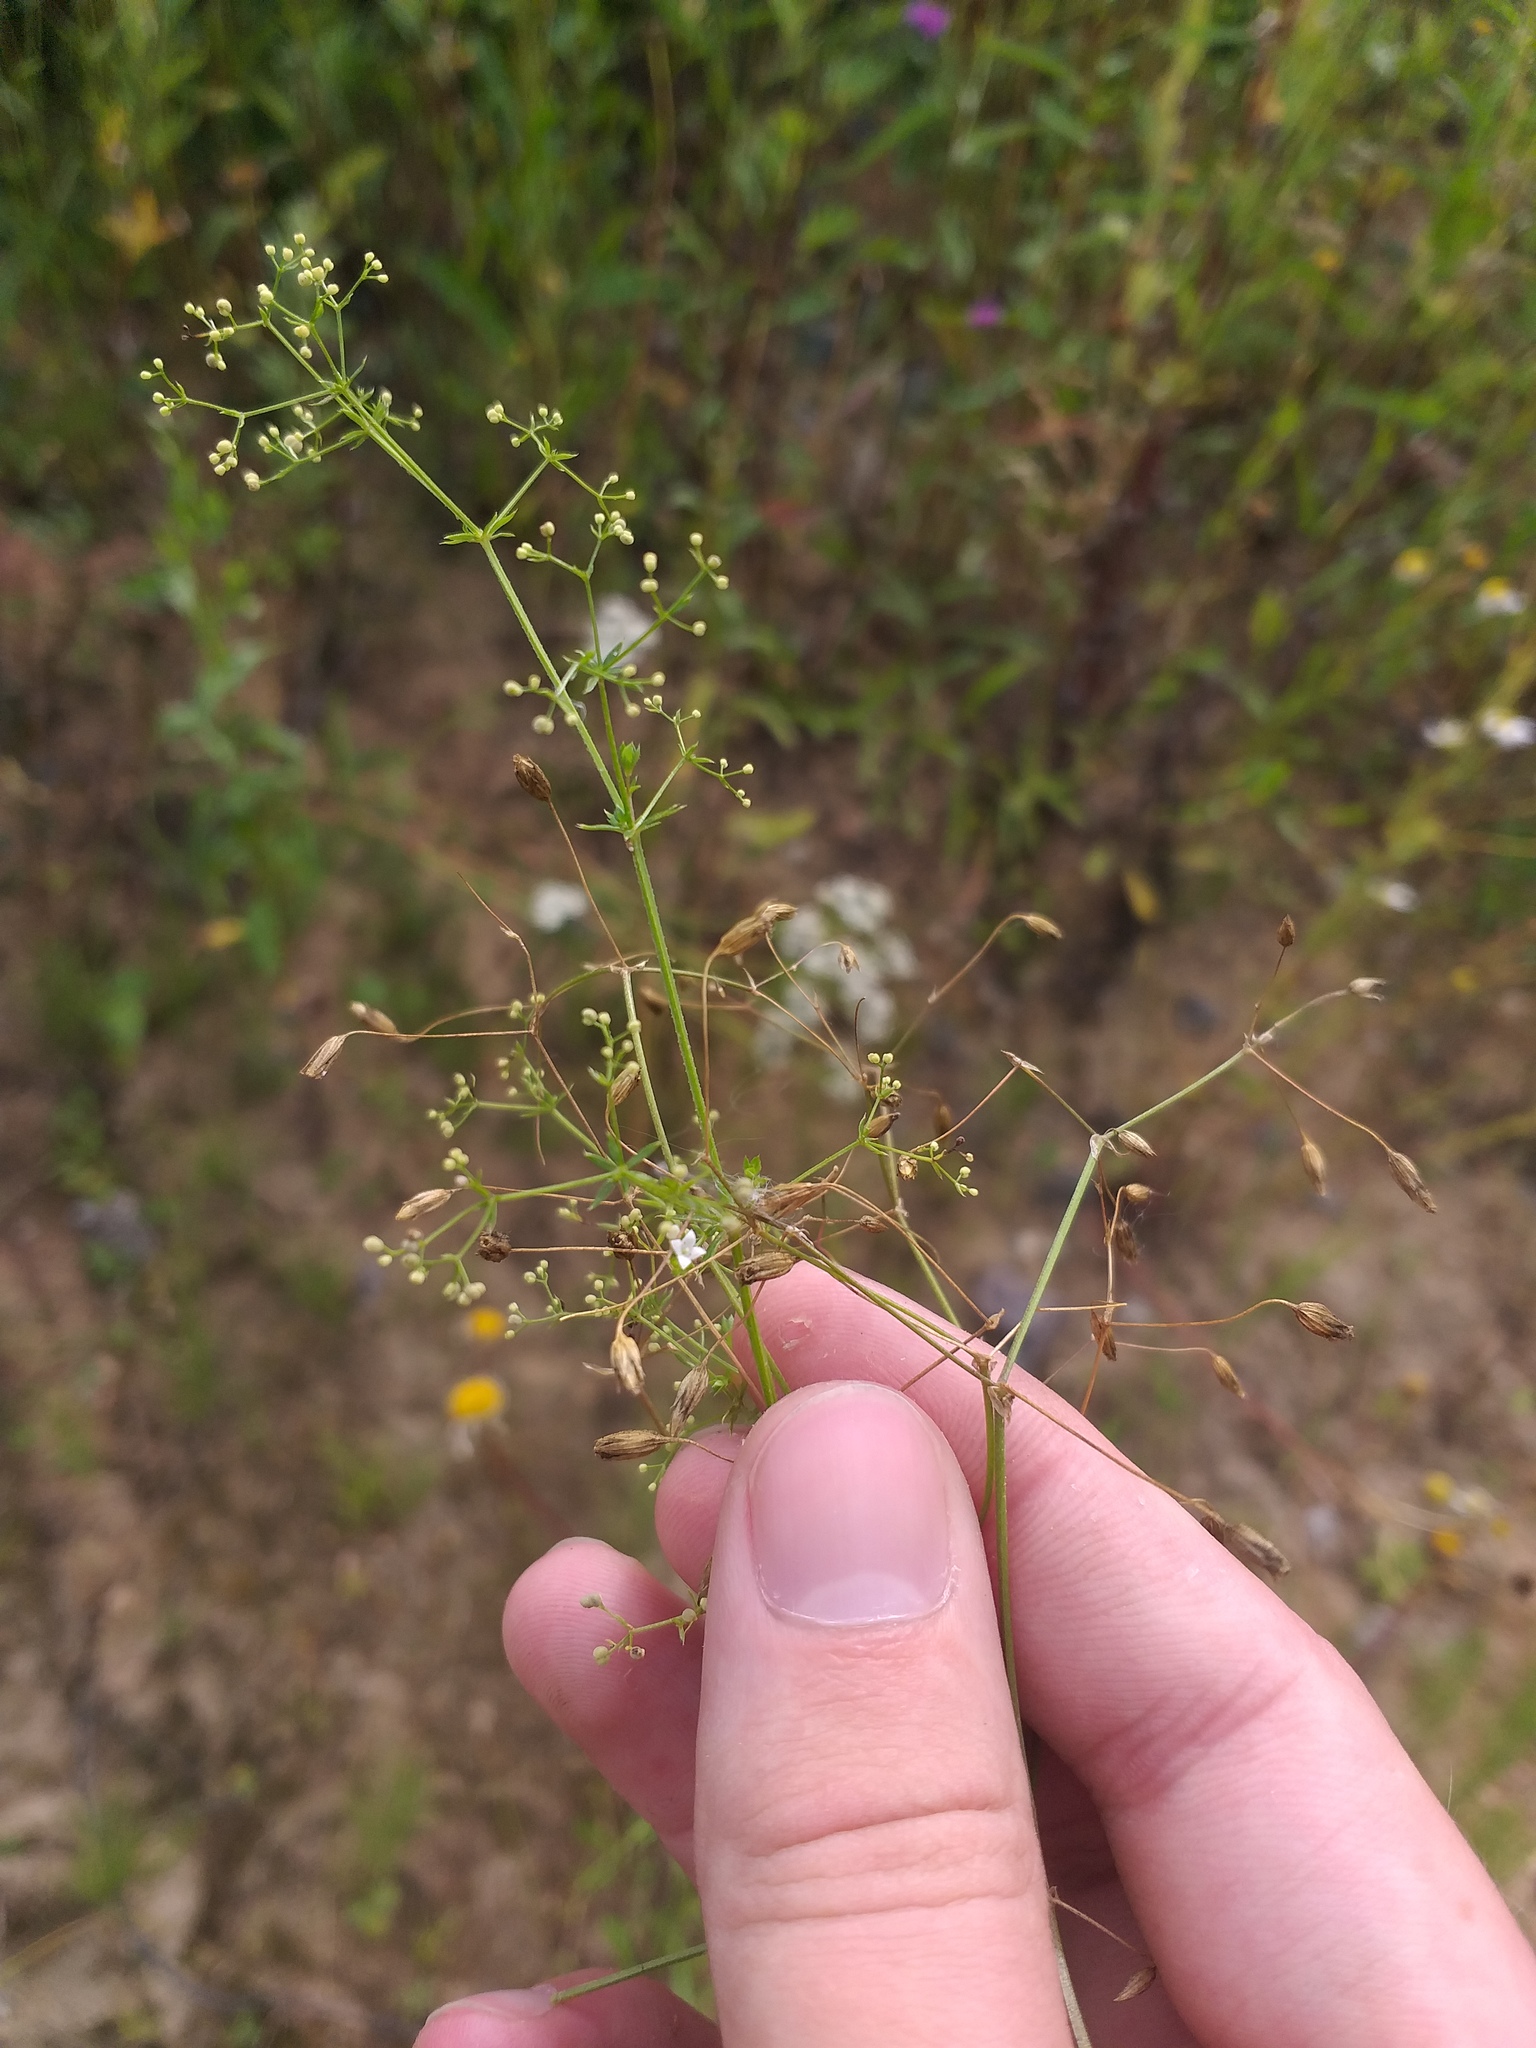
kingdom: Plantae
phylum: Tracheophyta
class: Magnoliopsida
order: Gentianales
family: Rubiaceae
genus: Galium
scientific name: Galium uliginosum
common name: Fen bedstraw
